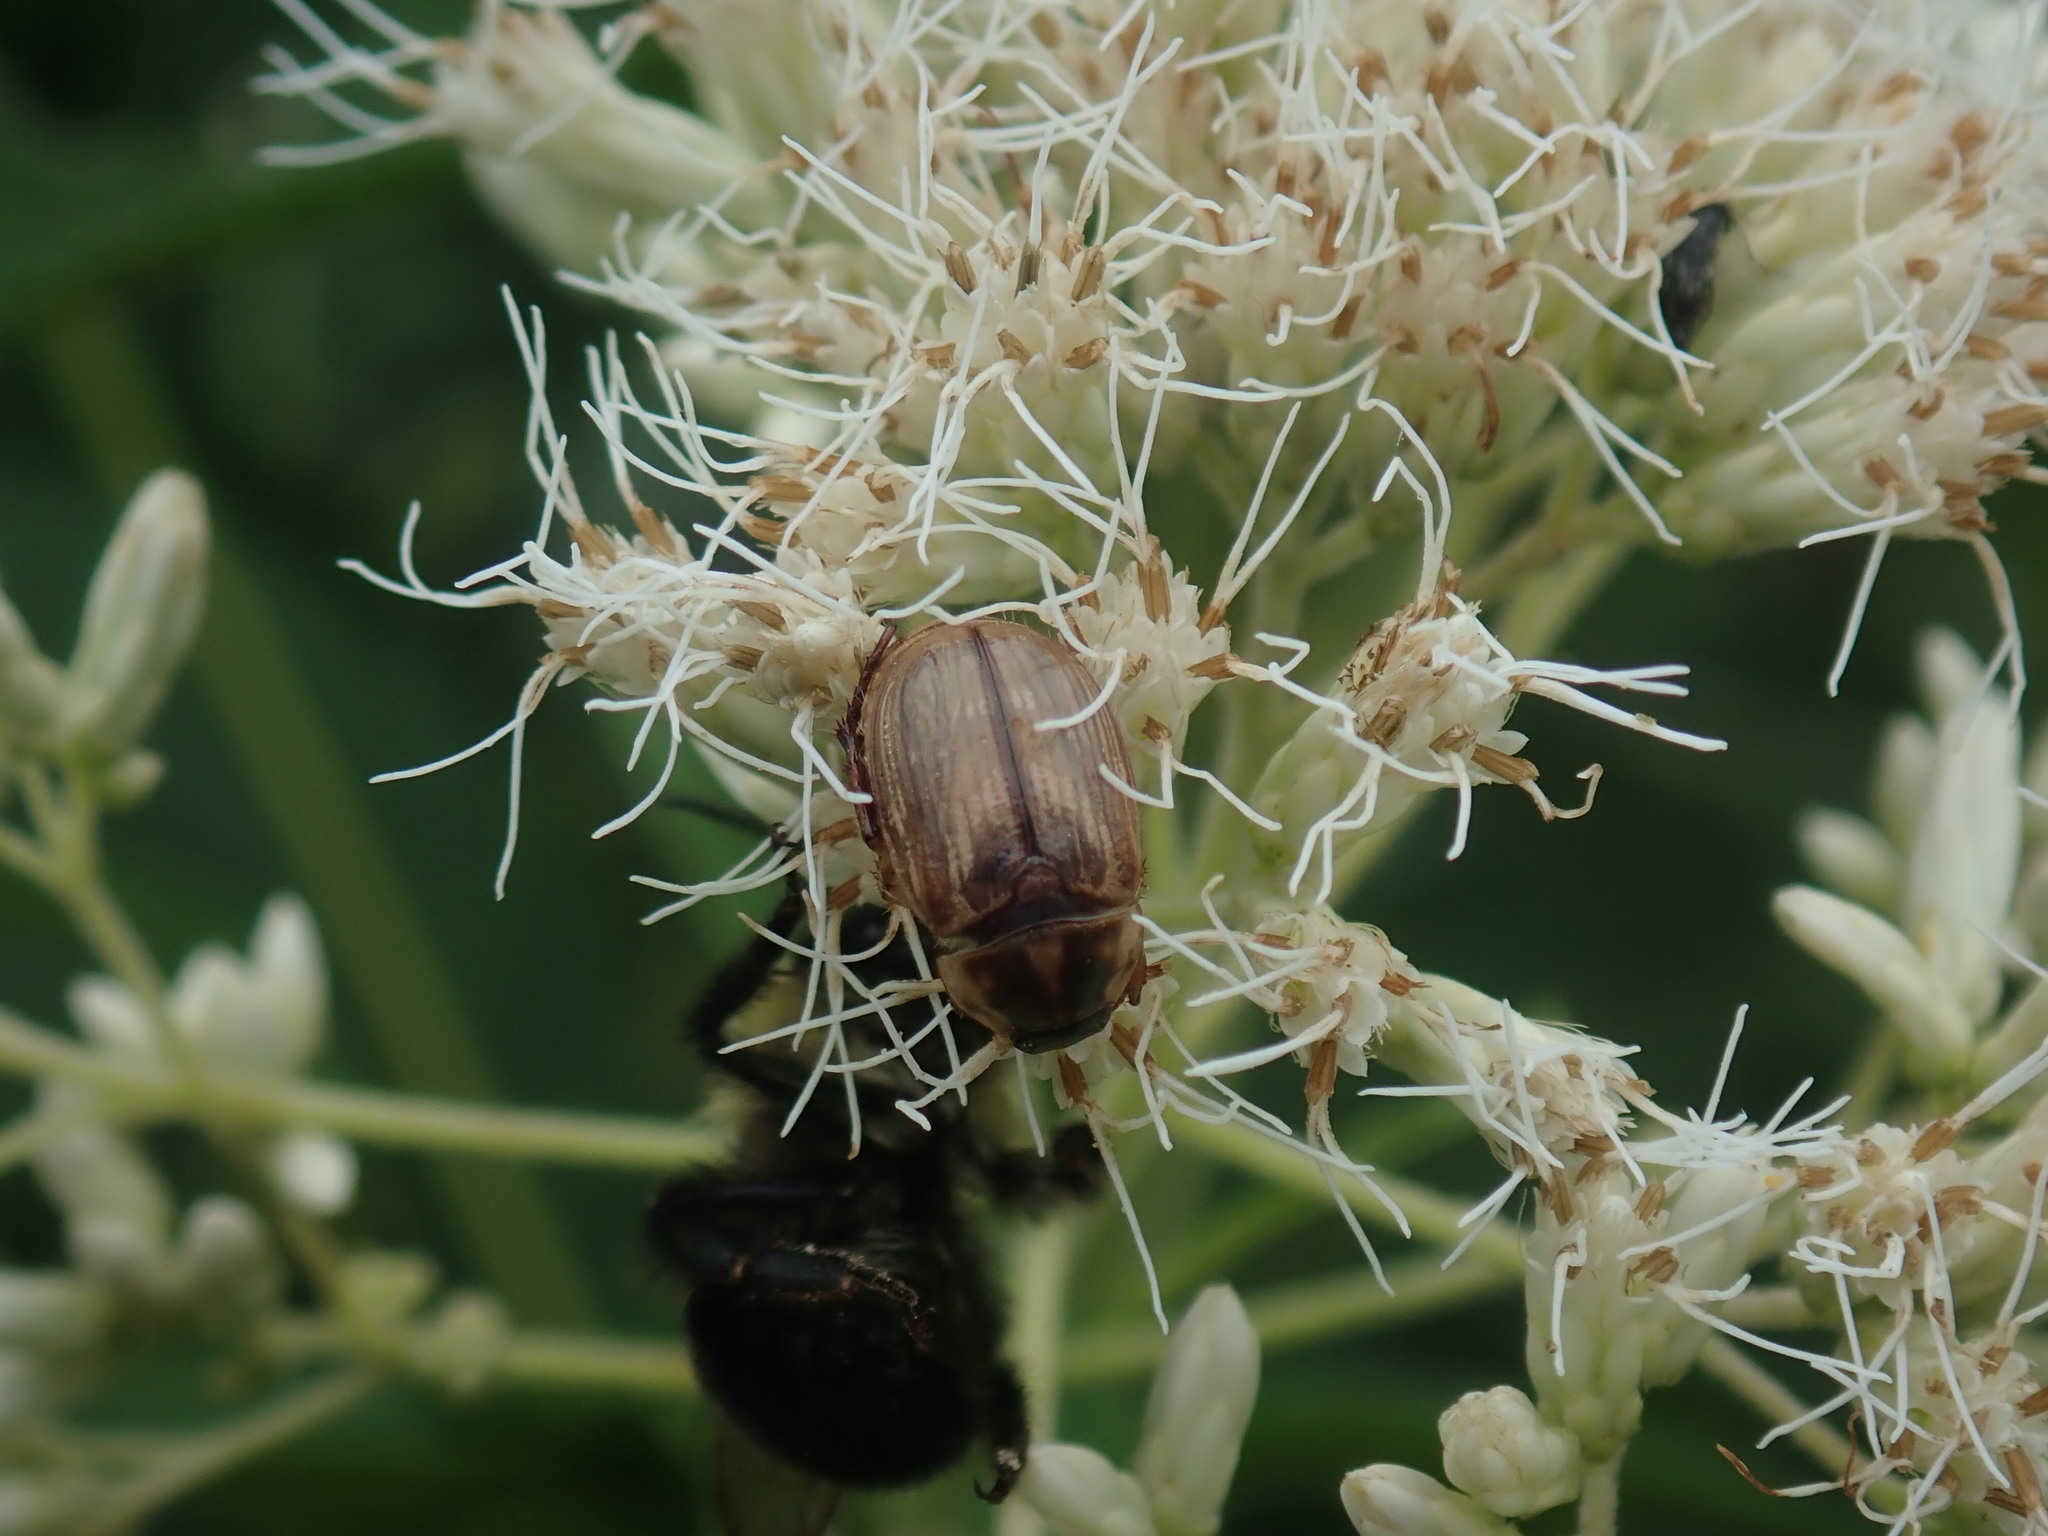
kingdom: Animalia
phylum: Arthropoda
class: Insecta
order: Coleoptera
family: Scarabaeidae
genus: Exomala
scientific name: Exomala orientalis
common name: Oriental beetle
